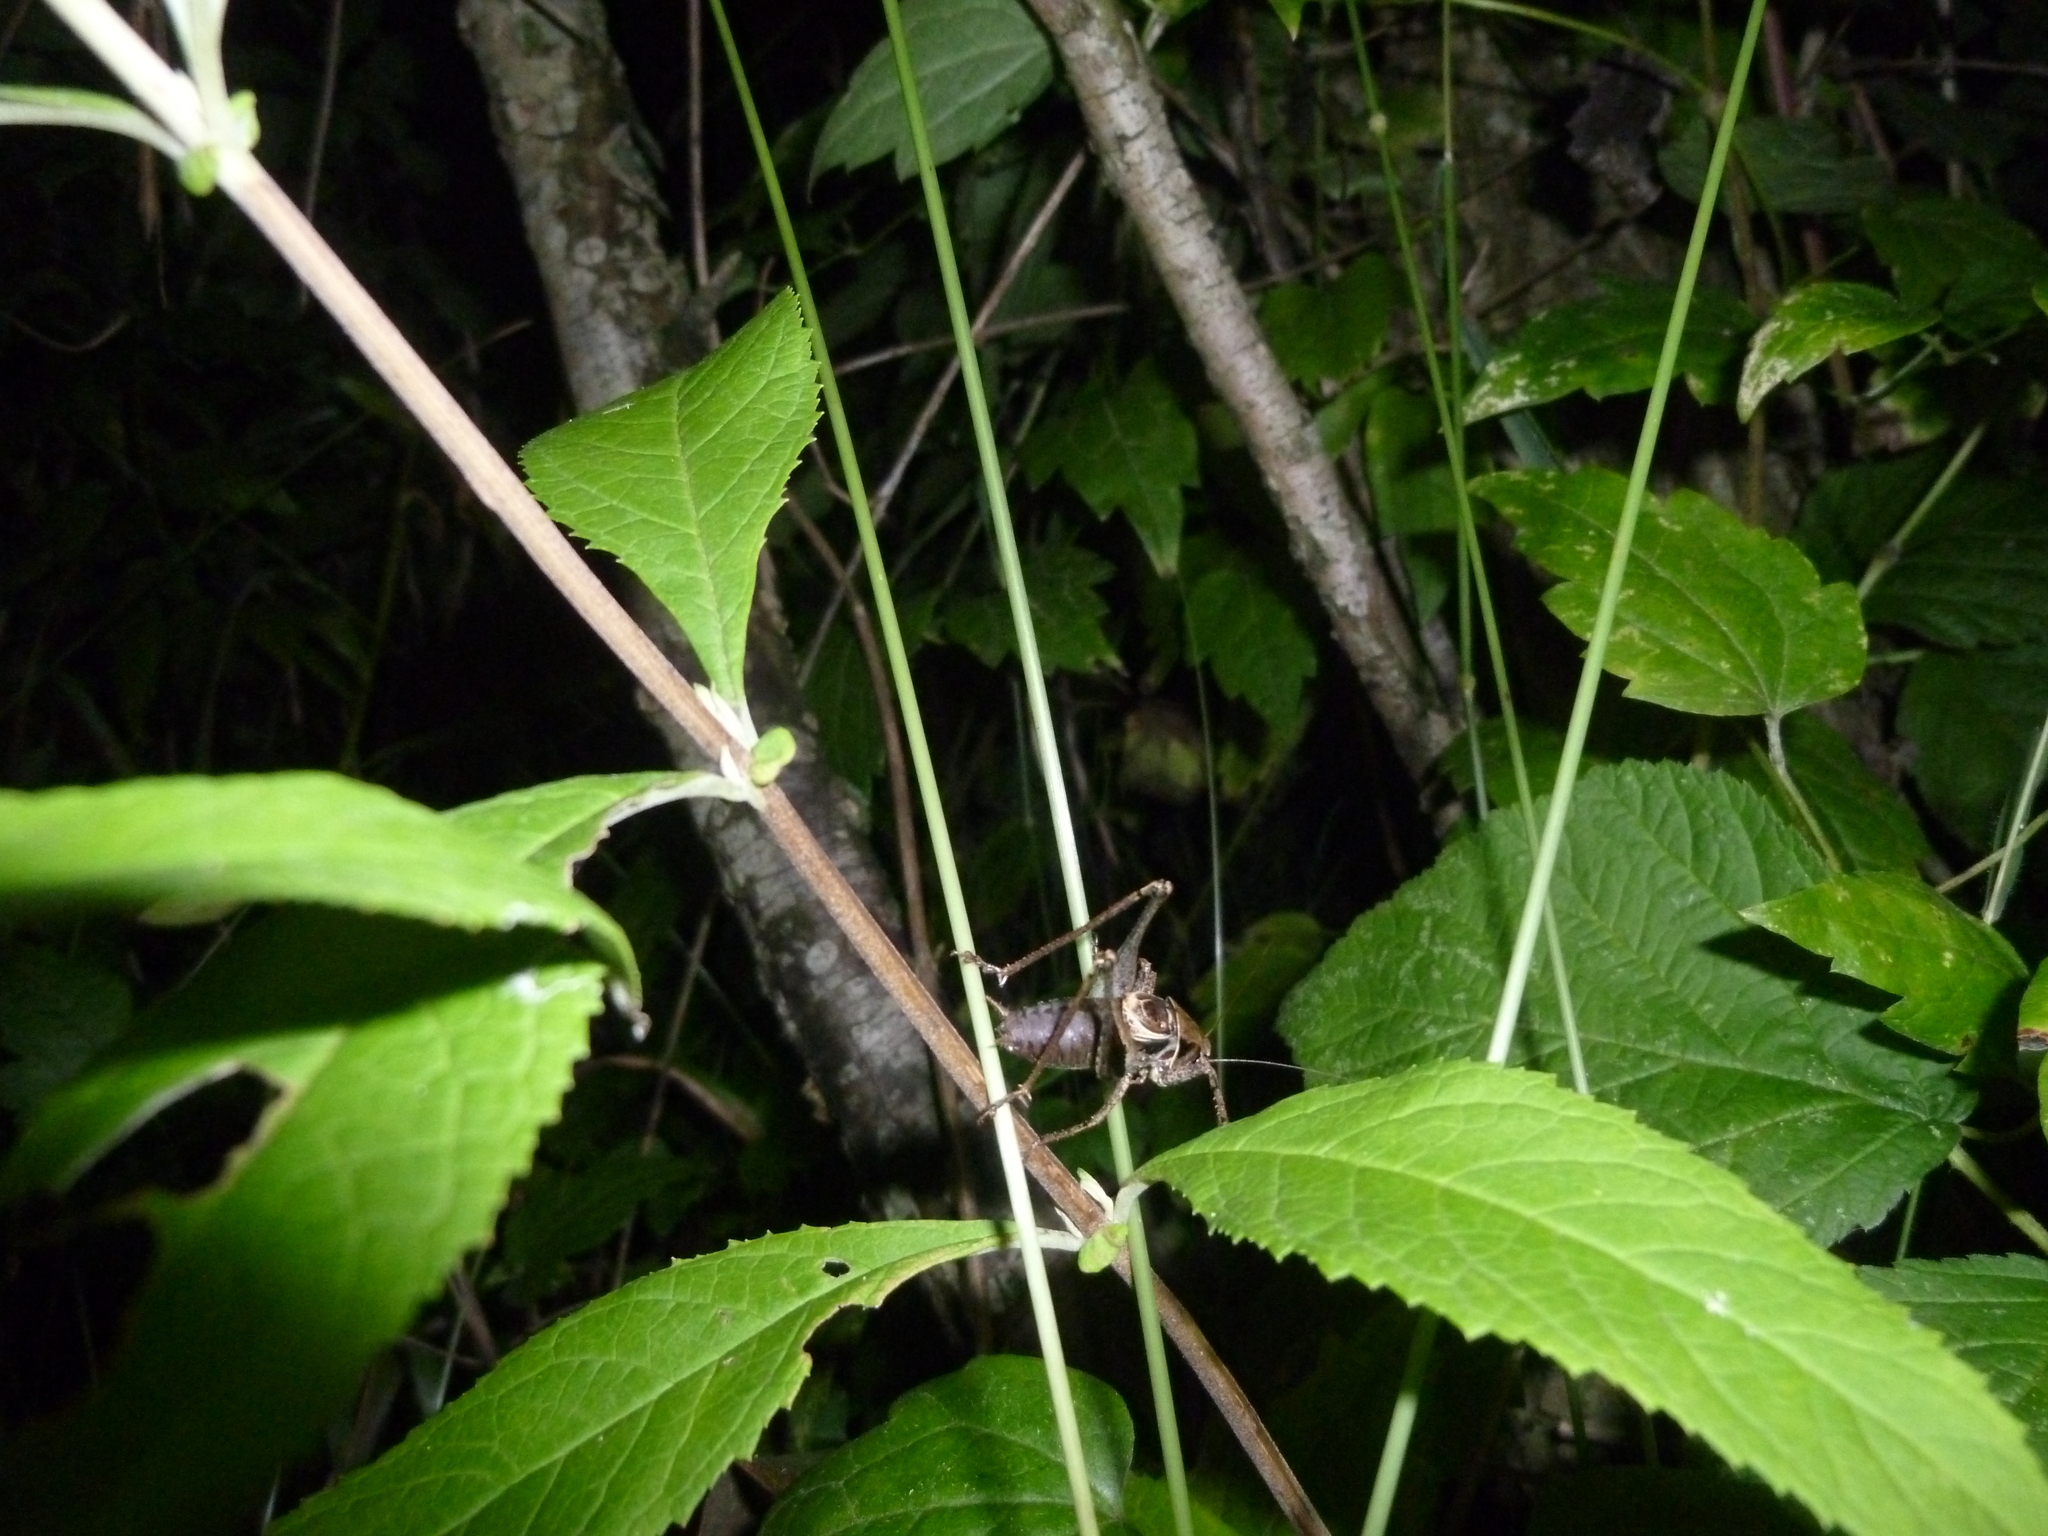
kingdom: Animalia
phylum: Arthropoda
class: Insecta
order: Orthoptera
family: Tettigoniidae
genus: Pholidoptera
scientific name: Pholidoptera griseoaptera
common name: Dark bush-cricket
